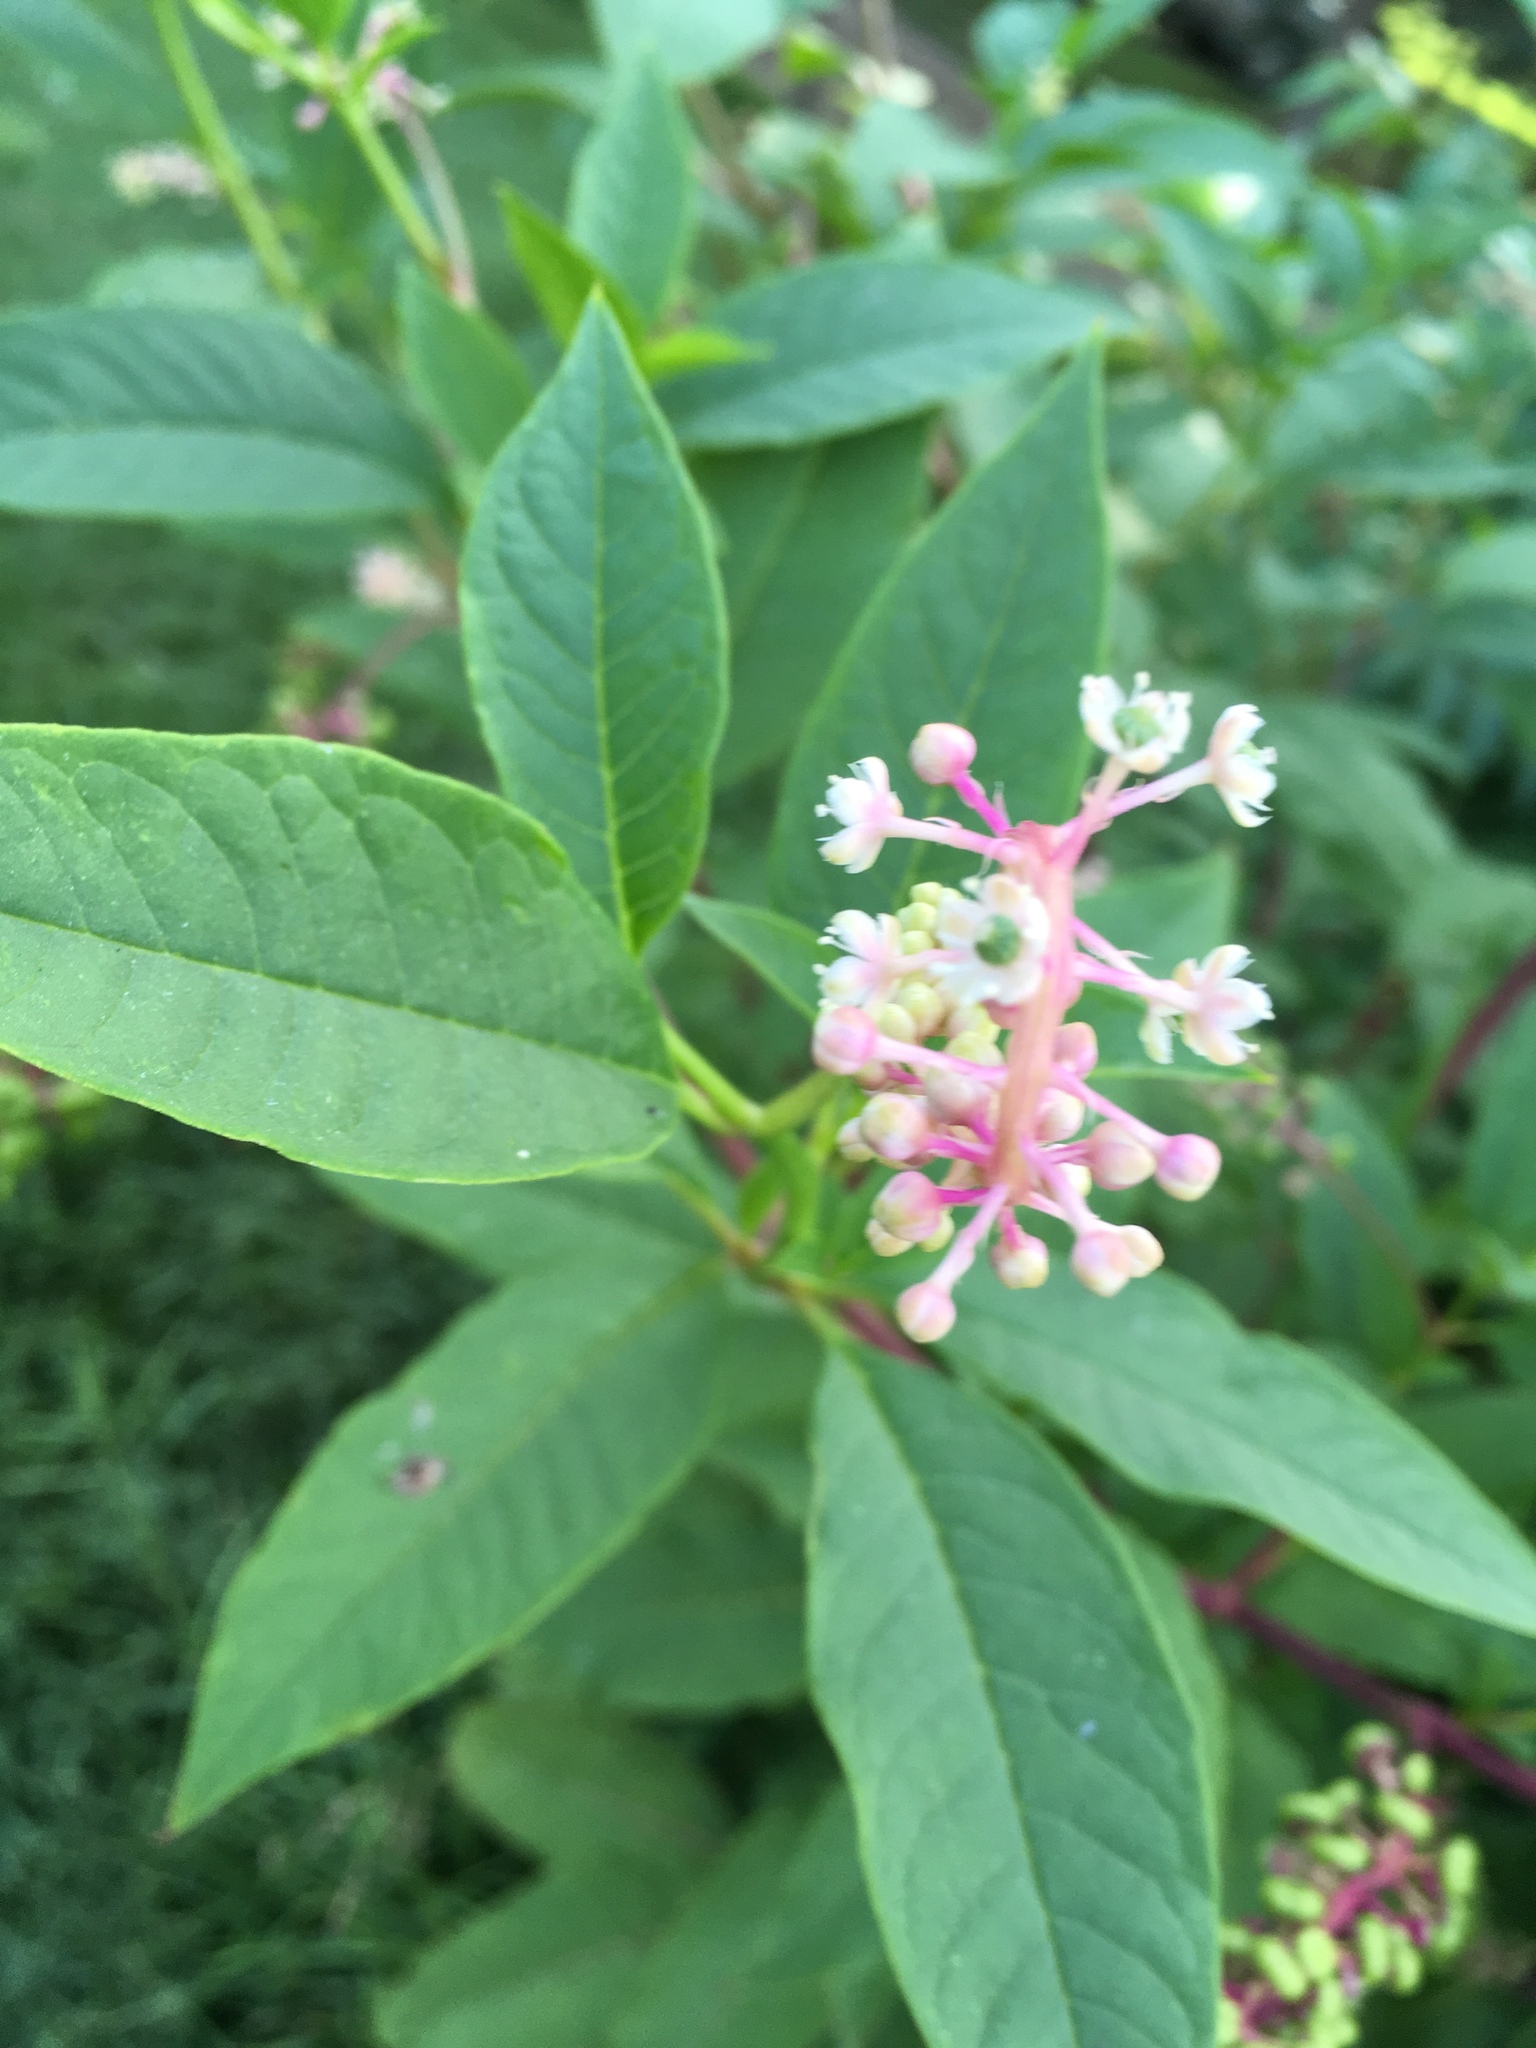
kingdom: Plantae
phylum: Tracheophyta
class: Magnoliopsida
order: Caryophyllales
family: Phytolaccaceae
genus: Phytolacca
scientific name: Phytolacca americana
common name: American pokeweed
